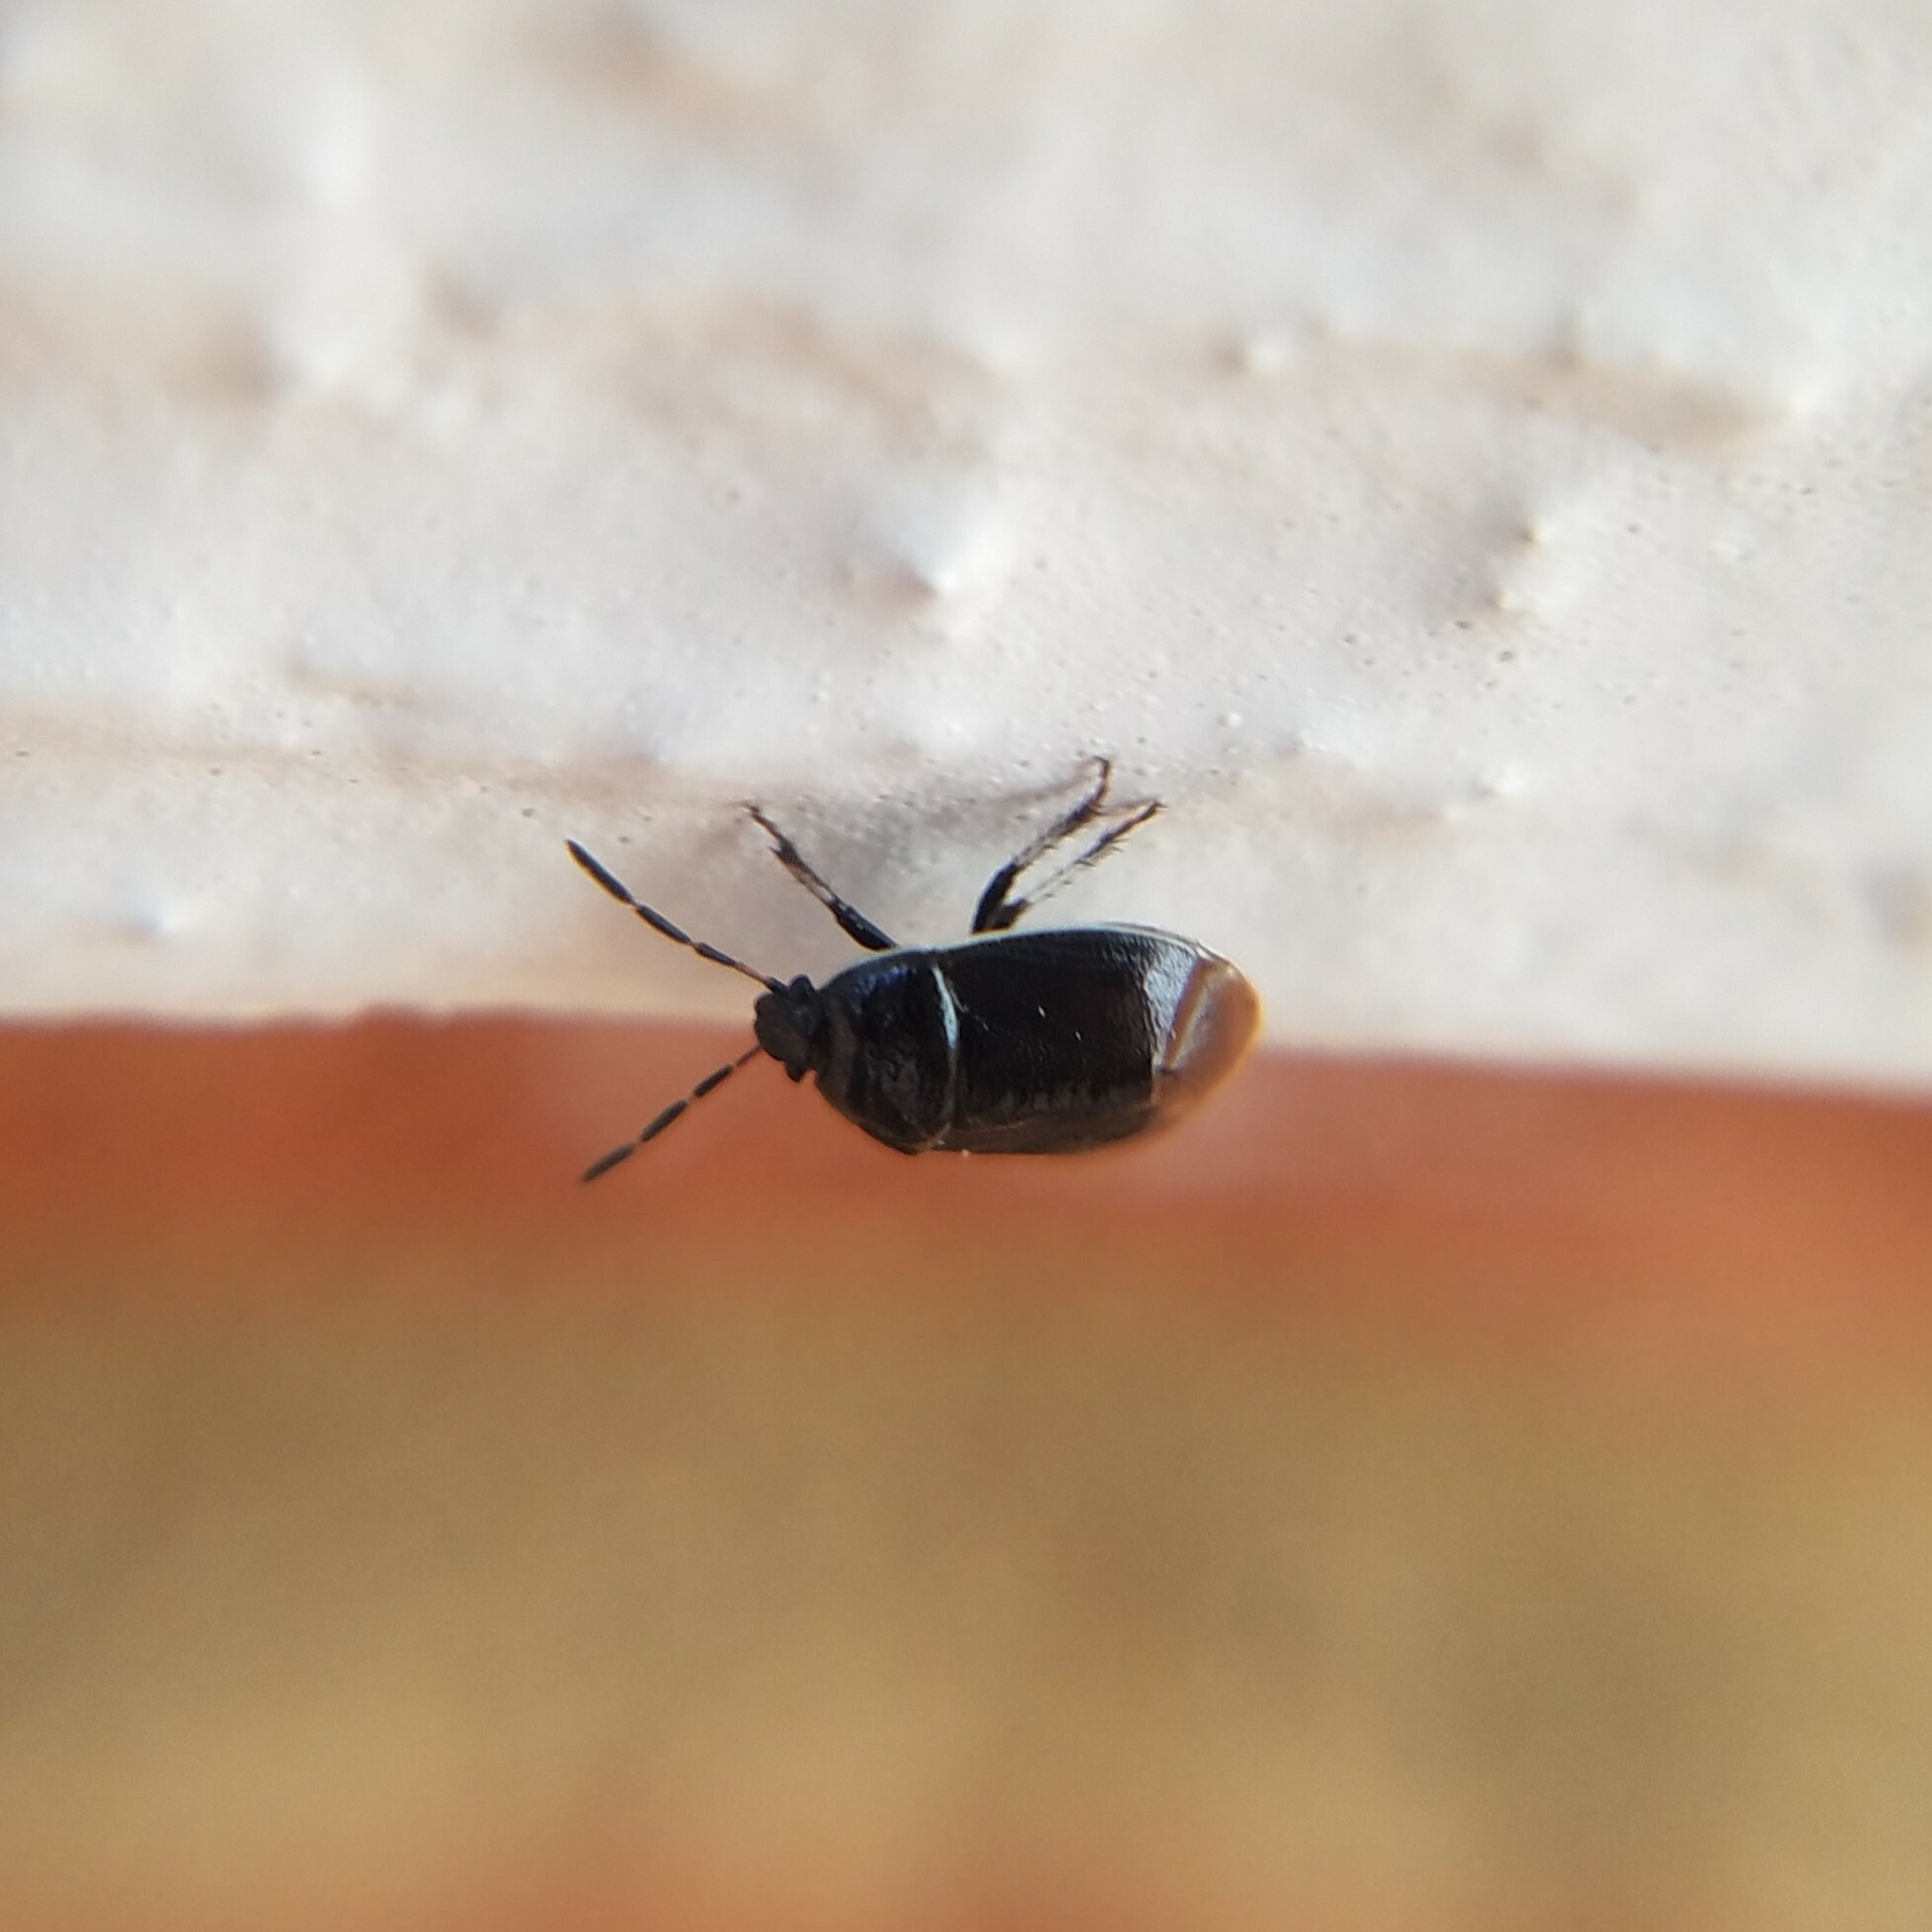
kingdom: Animalia
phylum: Arthropoda
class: Insecta
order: Hemiptera
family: Cydnidae
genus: Sehirus
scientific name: Sehirus cinctus
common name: White-margined burrower bug
